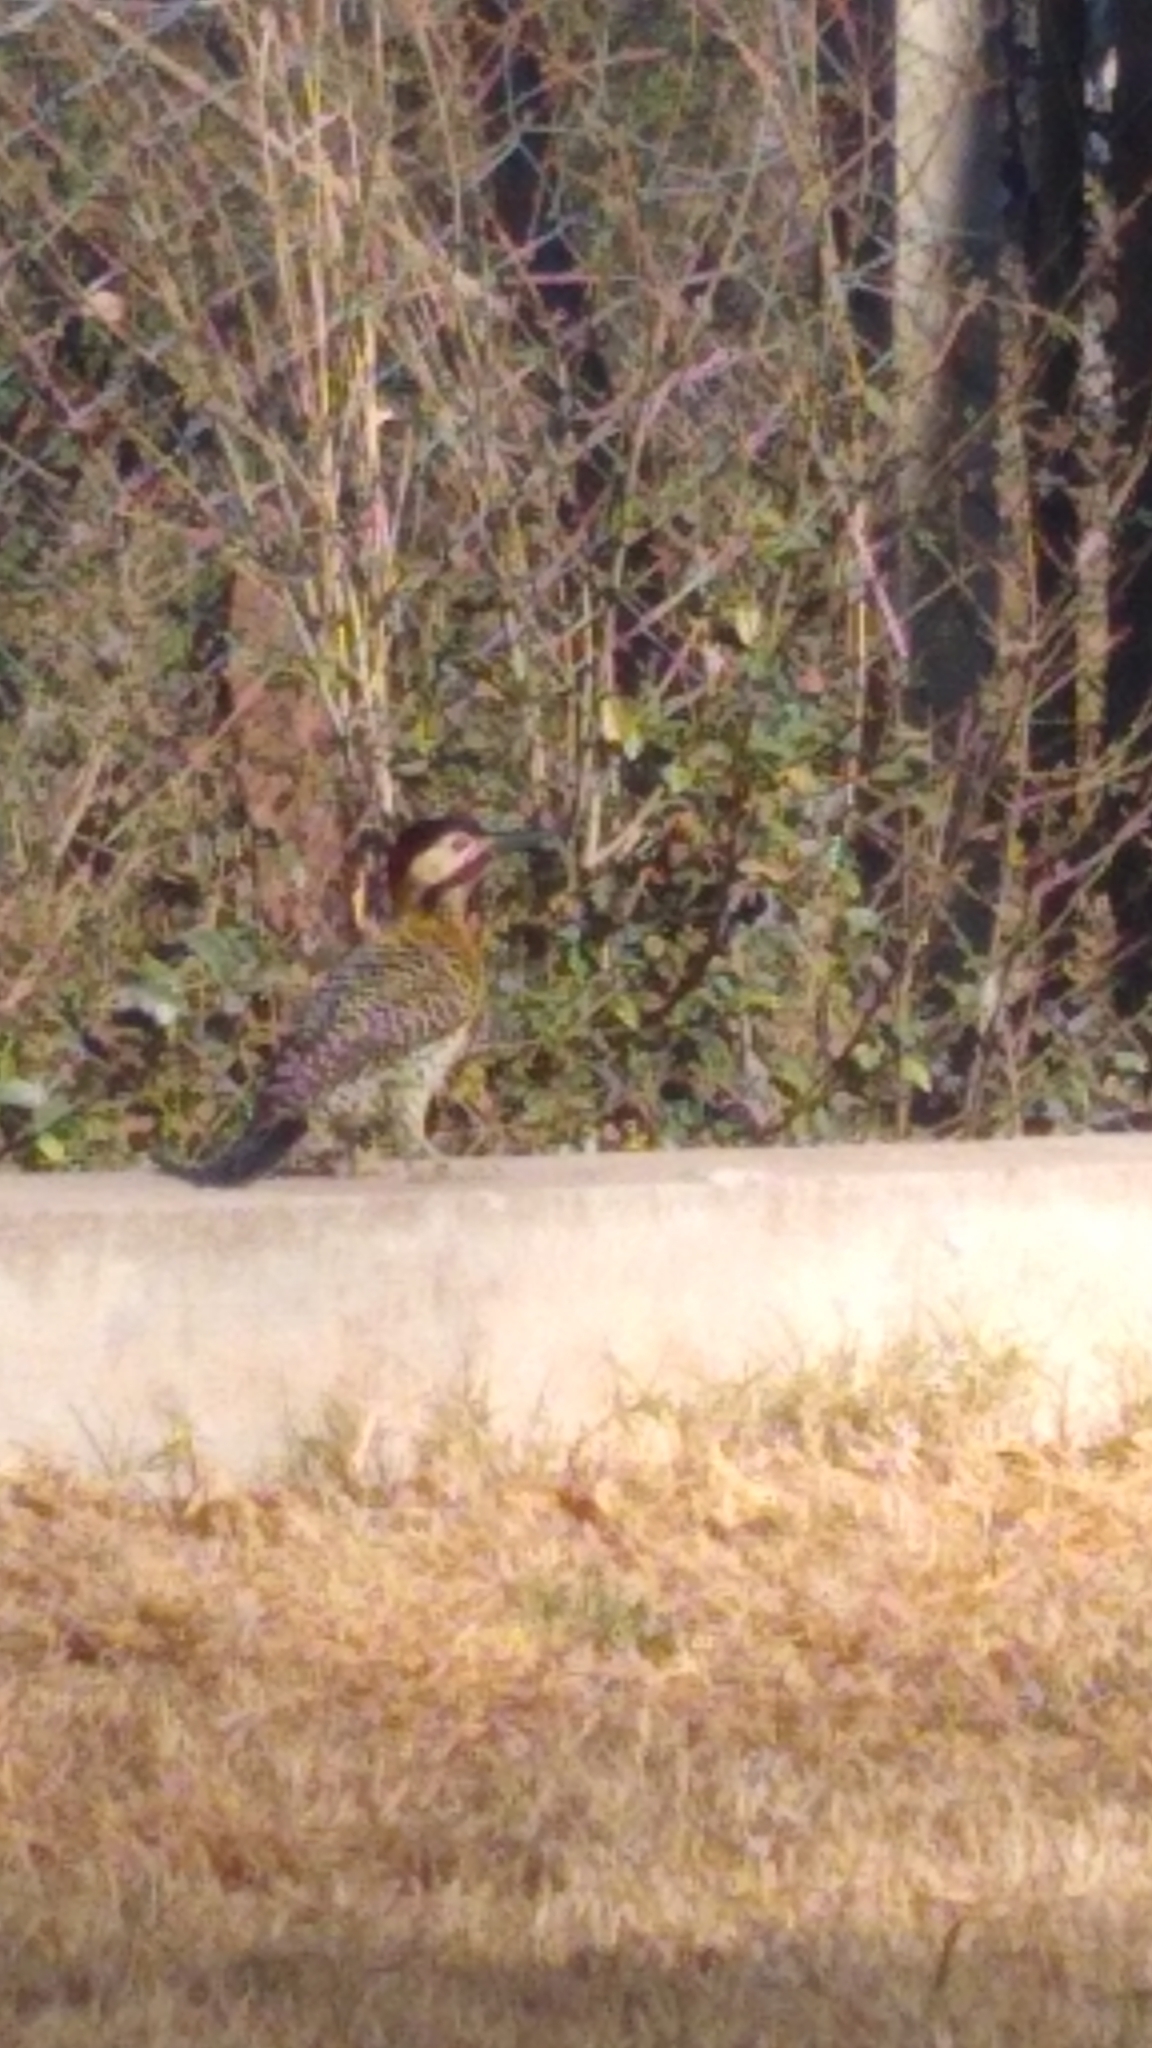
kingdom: Animalia
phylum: Chordata
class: Aves
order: Piciformes
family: Picidae
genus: Colaptes
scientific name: Colaptes melanochloros
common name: Green-barred woodpecker
